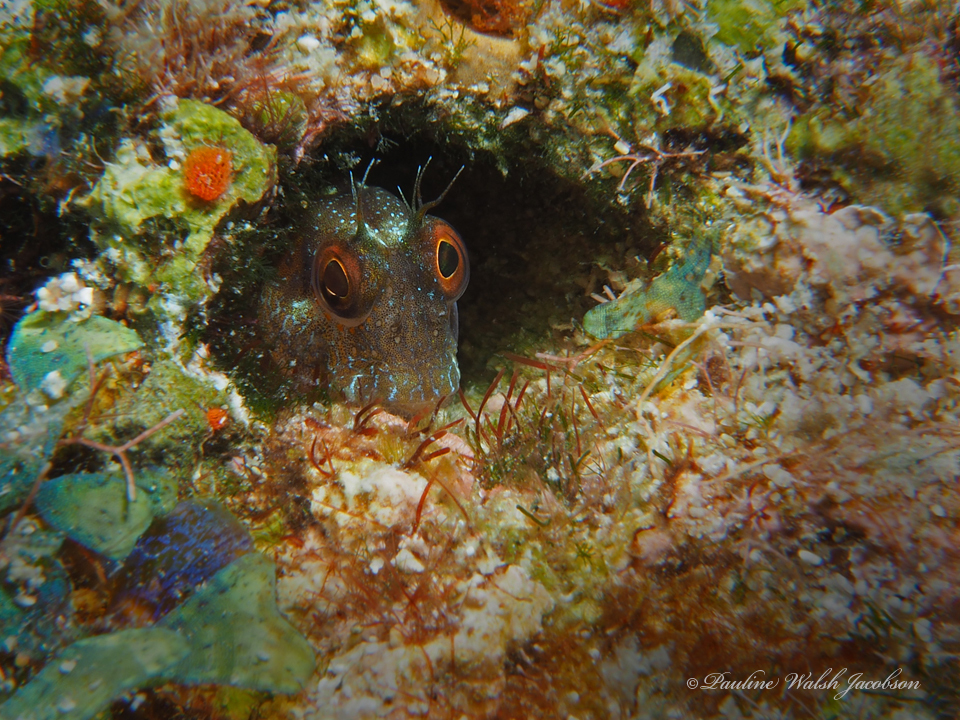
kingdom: Animalia
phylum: Chordata
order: Perciformes
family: Blenniidae
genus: Parablennius
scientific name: Parablennius marmoreus
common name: Seaweed blenny
